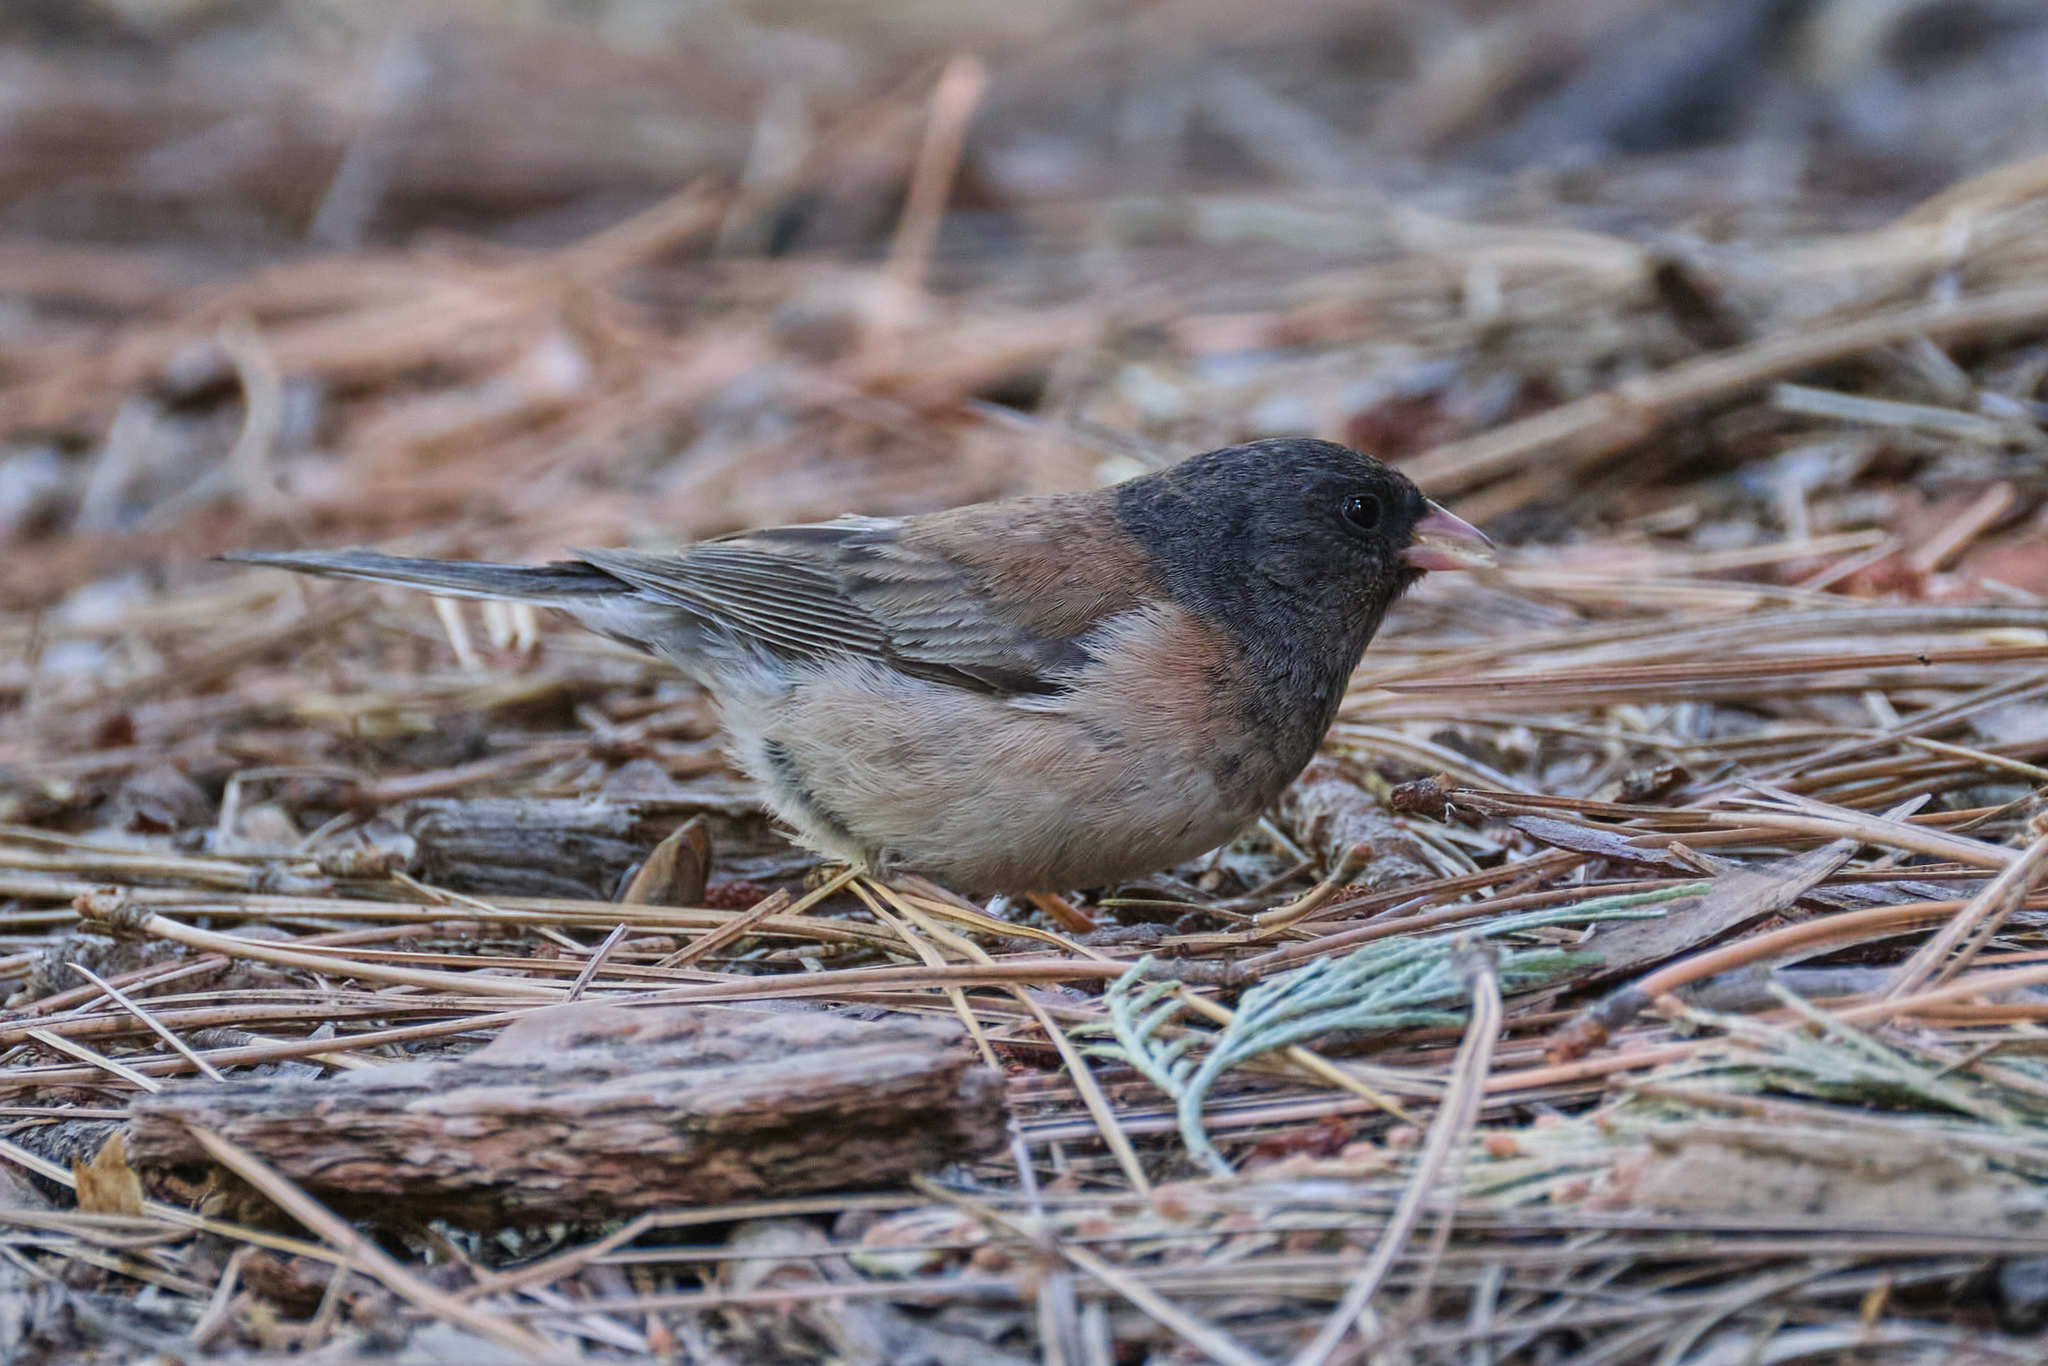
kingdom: Animalia
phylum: Chordata
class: Aves
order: Passeriformes
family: Passerellidae
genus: Junco
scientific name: Junco hyemalis
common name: Dark-eyed junco
